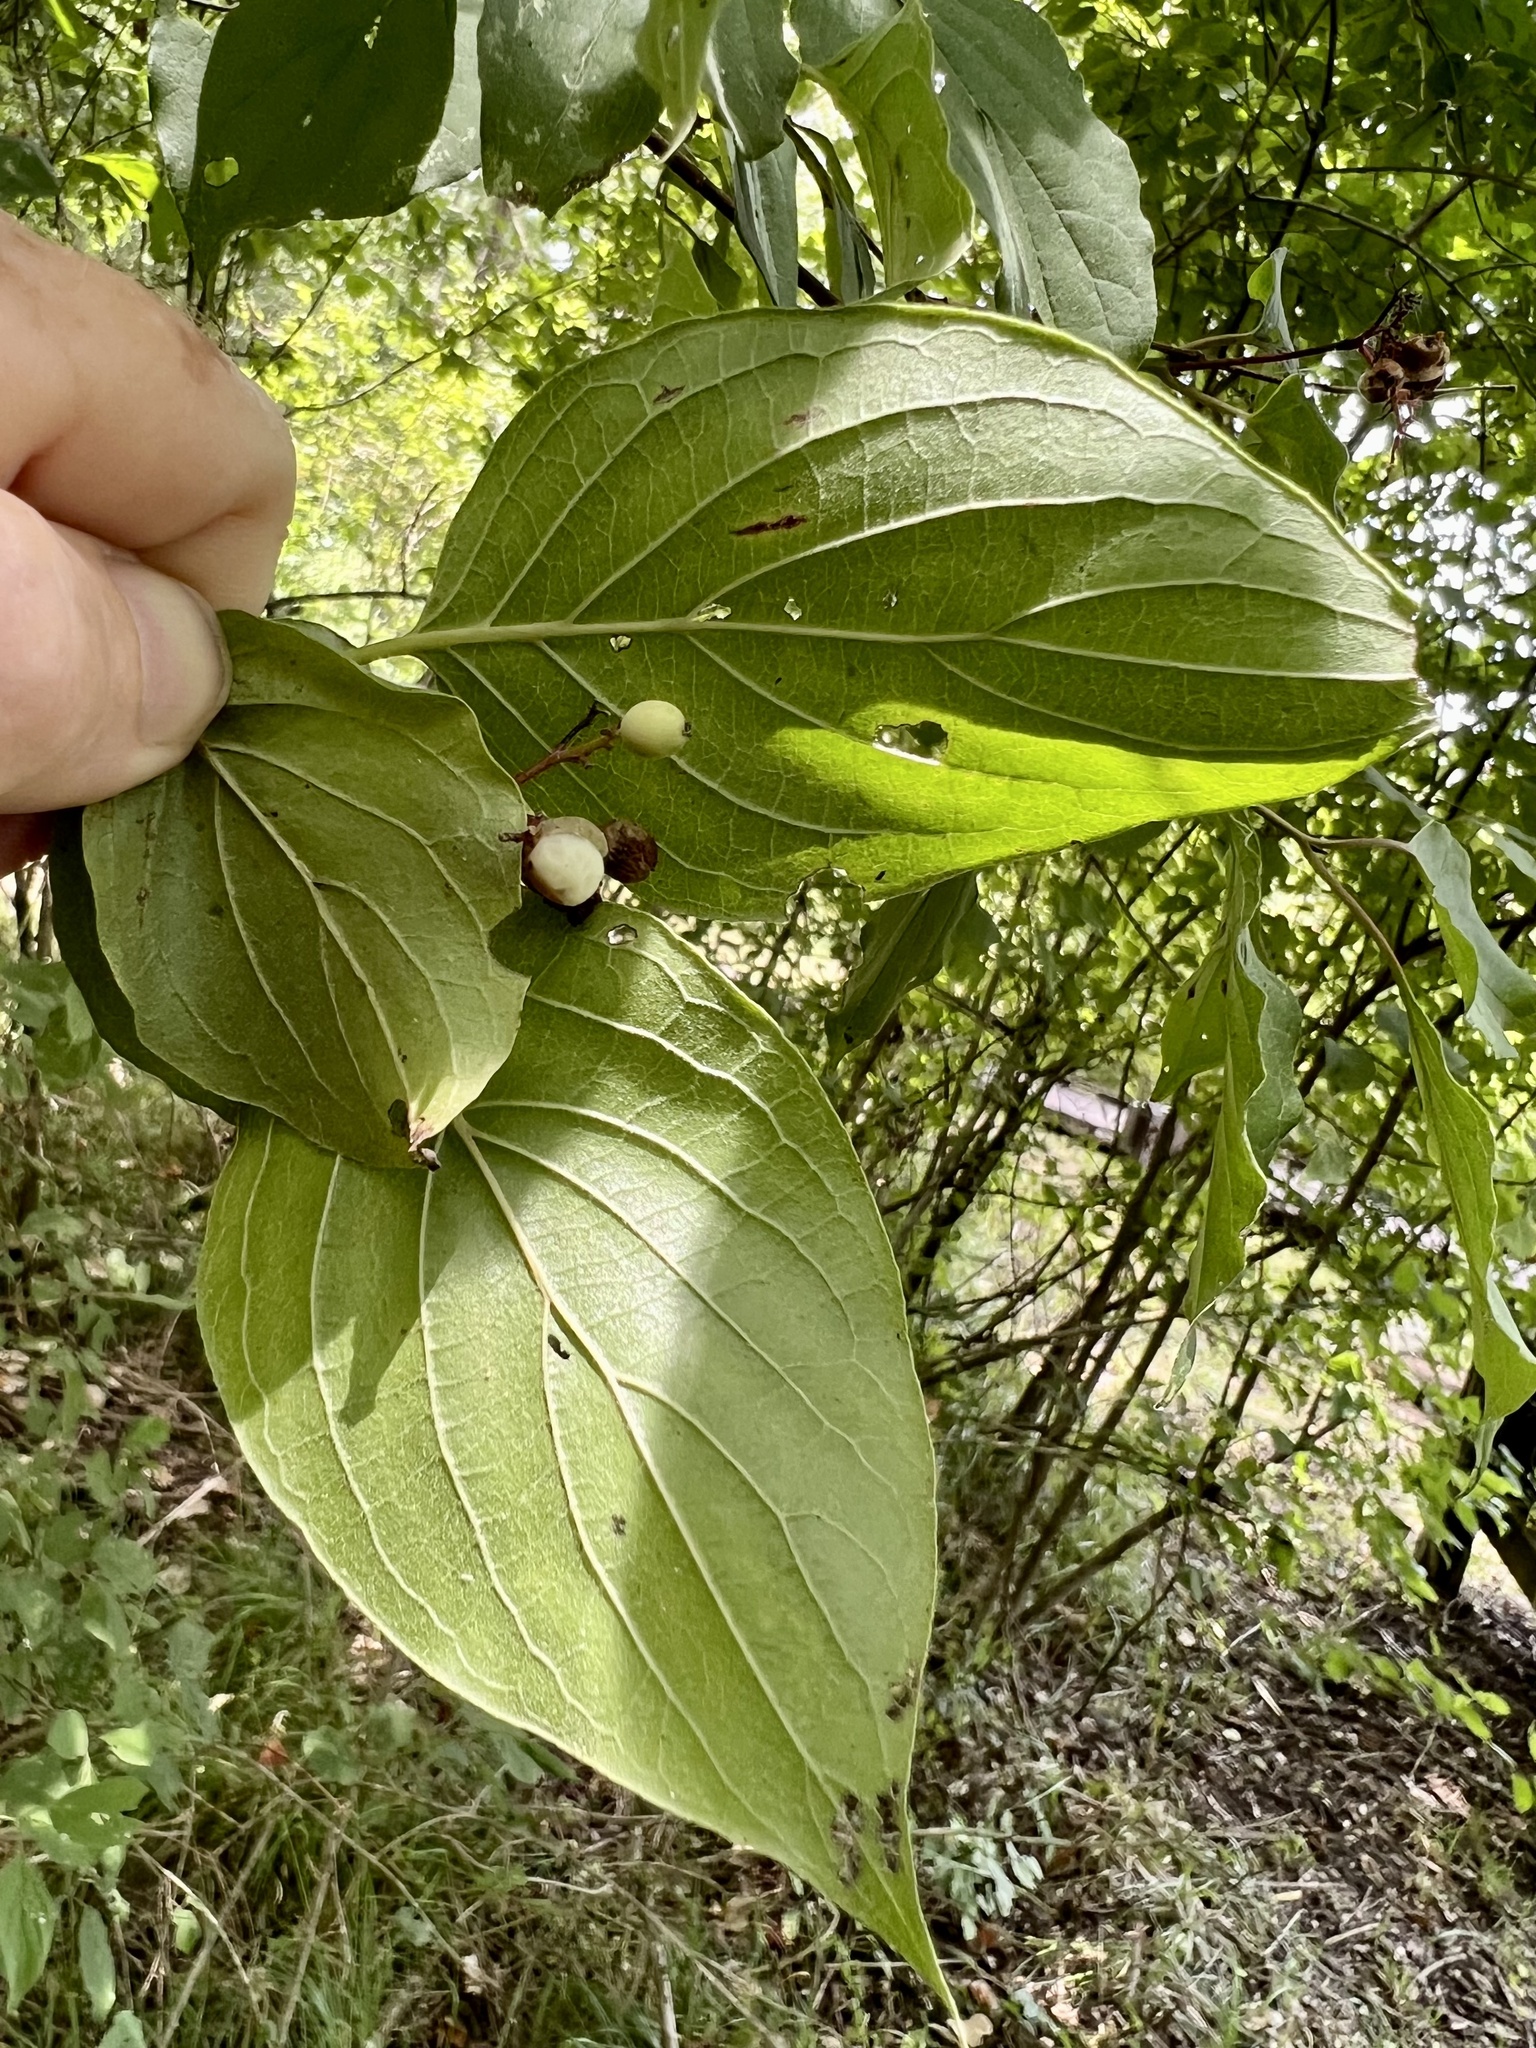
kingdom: Plantae
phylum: Tracheophyta
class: Magnoliopsida
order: Cornales
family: Cornaceae
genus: Cornus
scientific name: Cornus drummondii
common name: Rough-leaf dogwood
